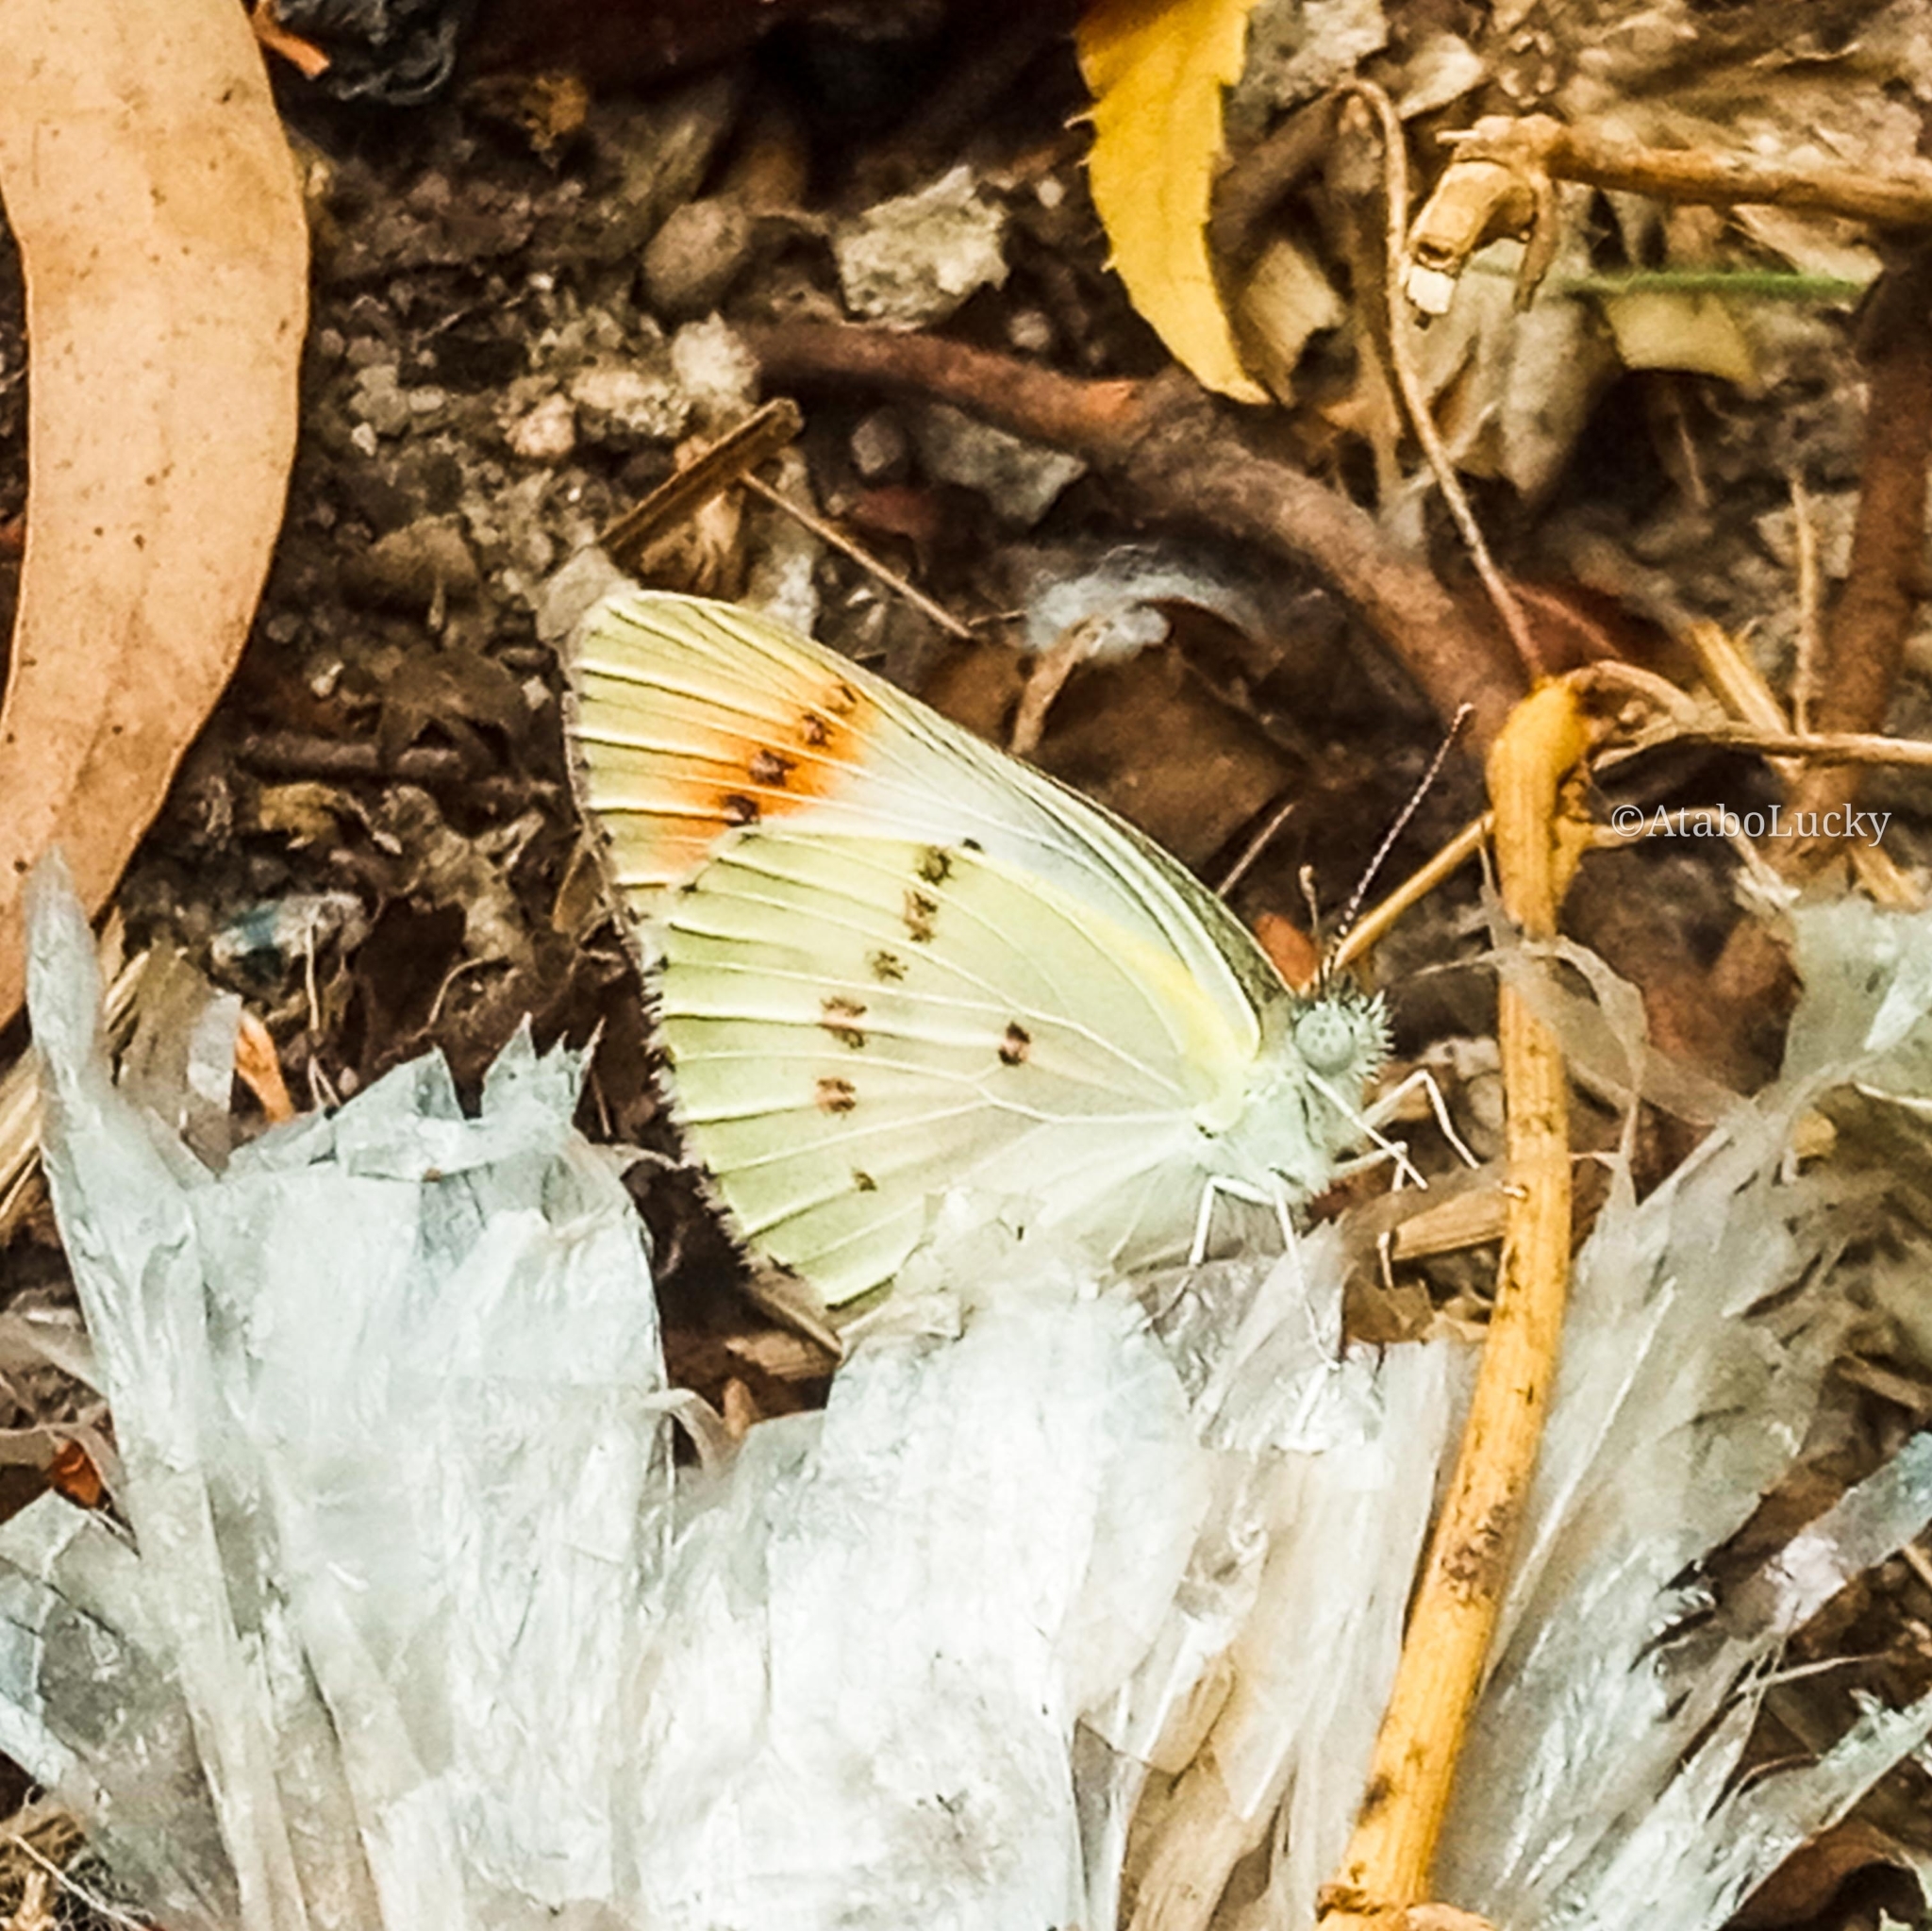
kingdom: Animalia
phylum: Arthropoda
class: Insecta
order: Lepidoptera
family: Pieridae
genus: Colotis
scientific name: Colotis danae
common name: Crimson tip
